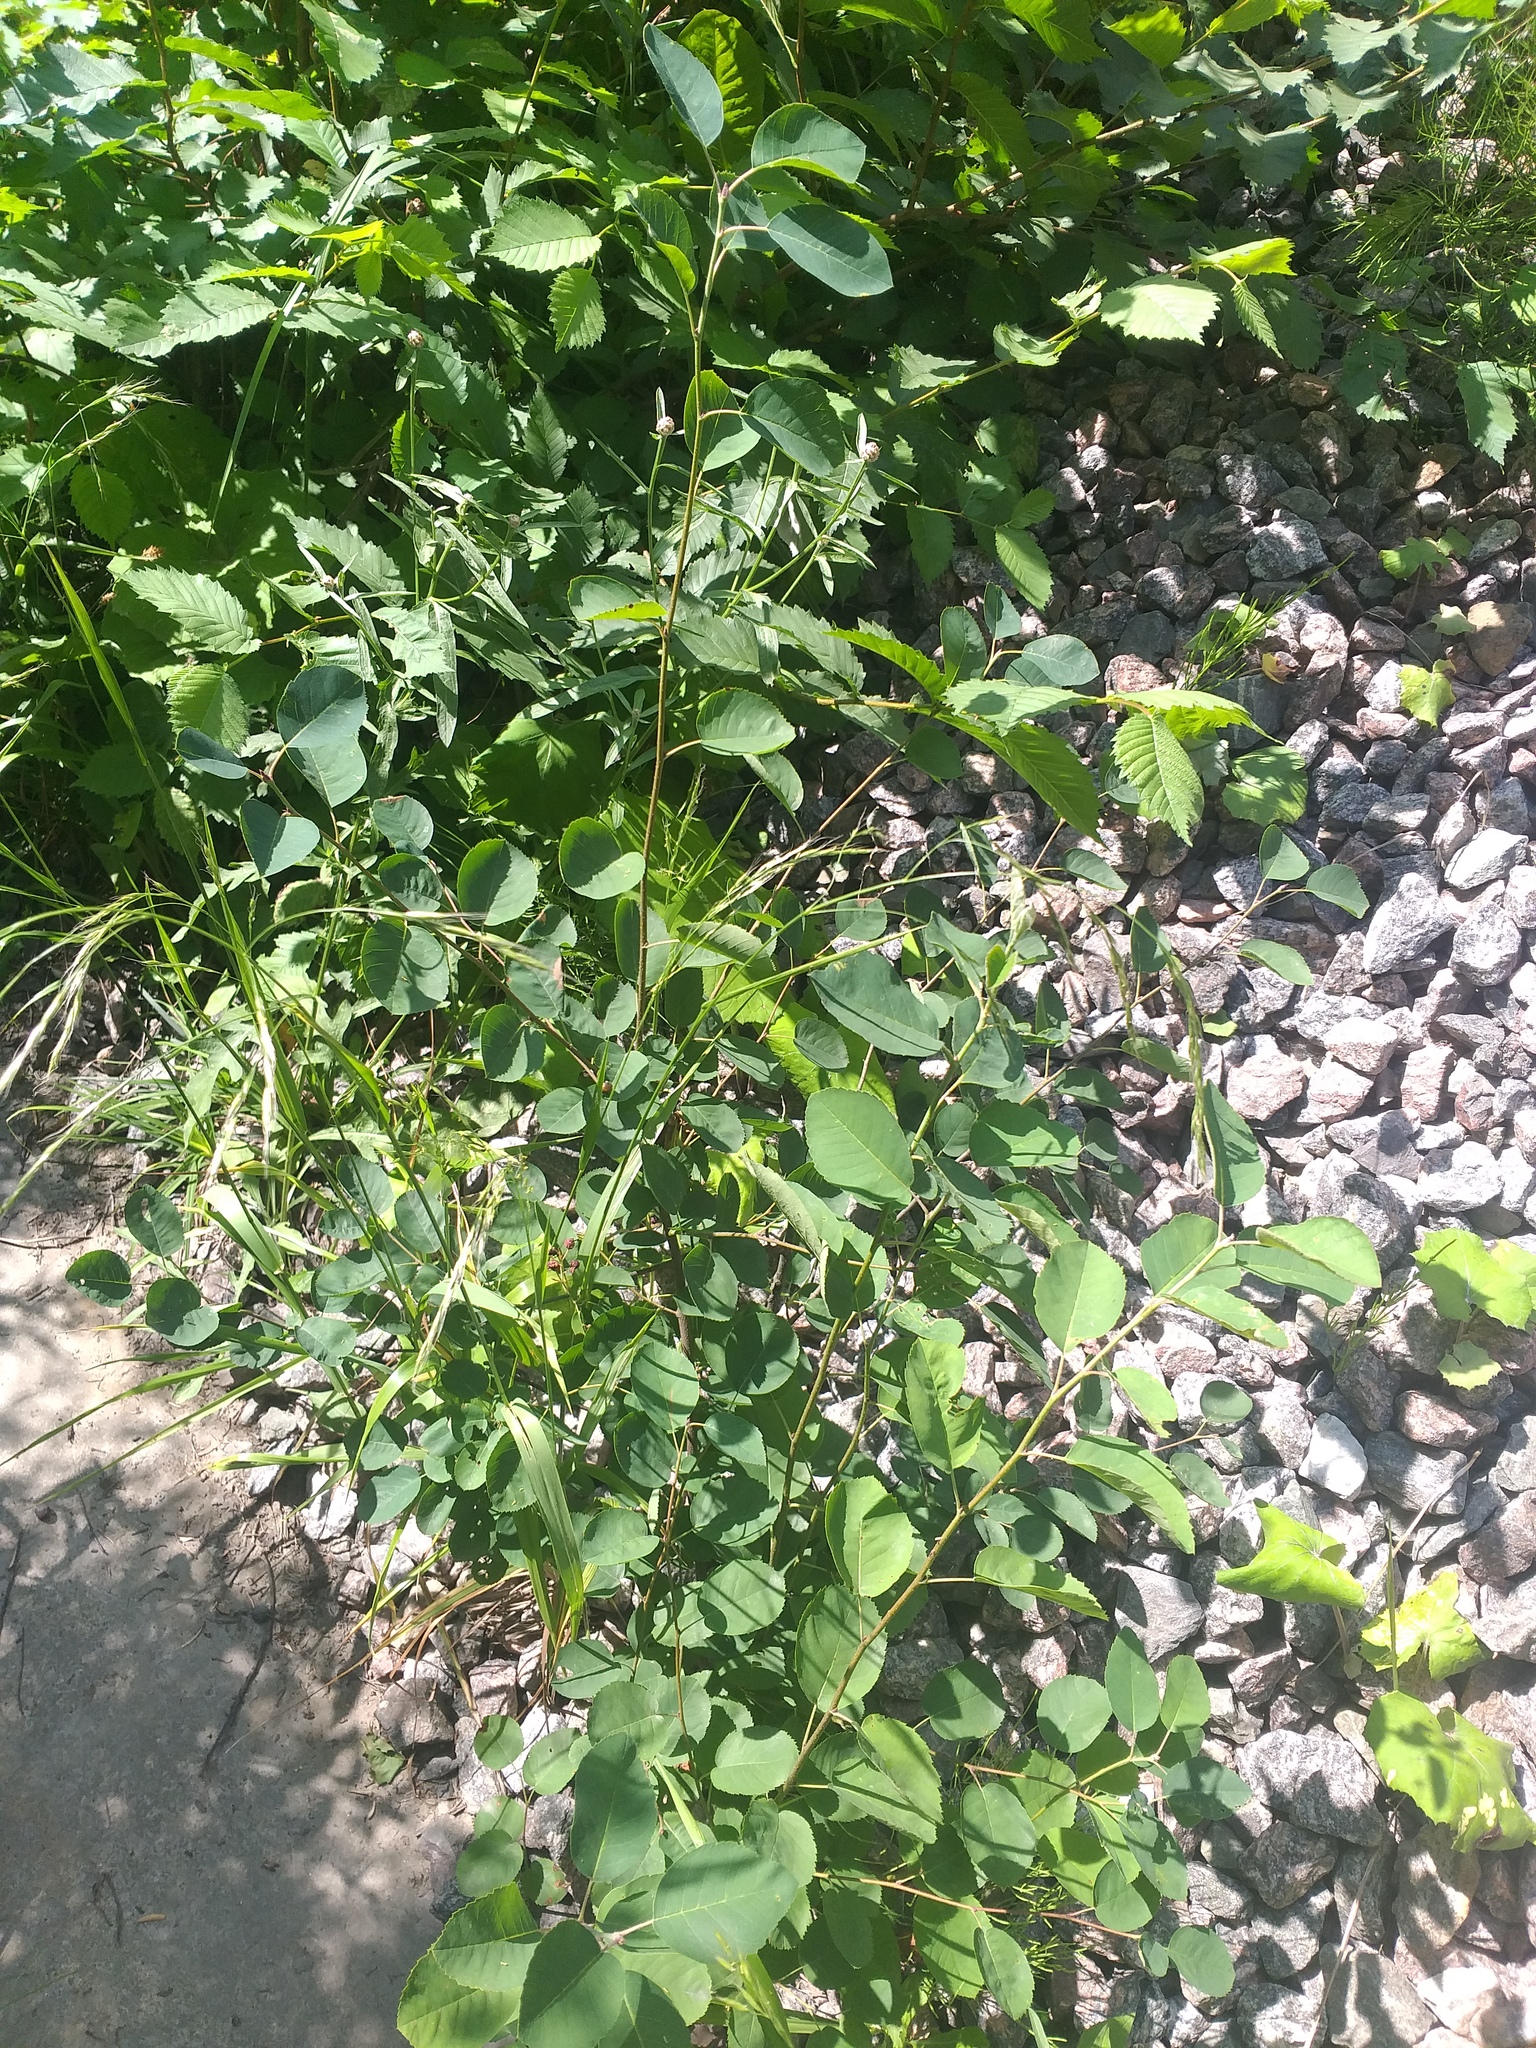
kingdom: Plantae
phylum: Tracheophyta
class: Magnoliopsida
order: Rosales
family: Rosaceae
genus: Amelanchier
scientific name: Amelanchier
